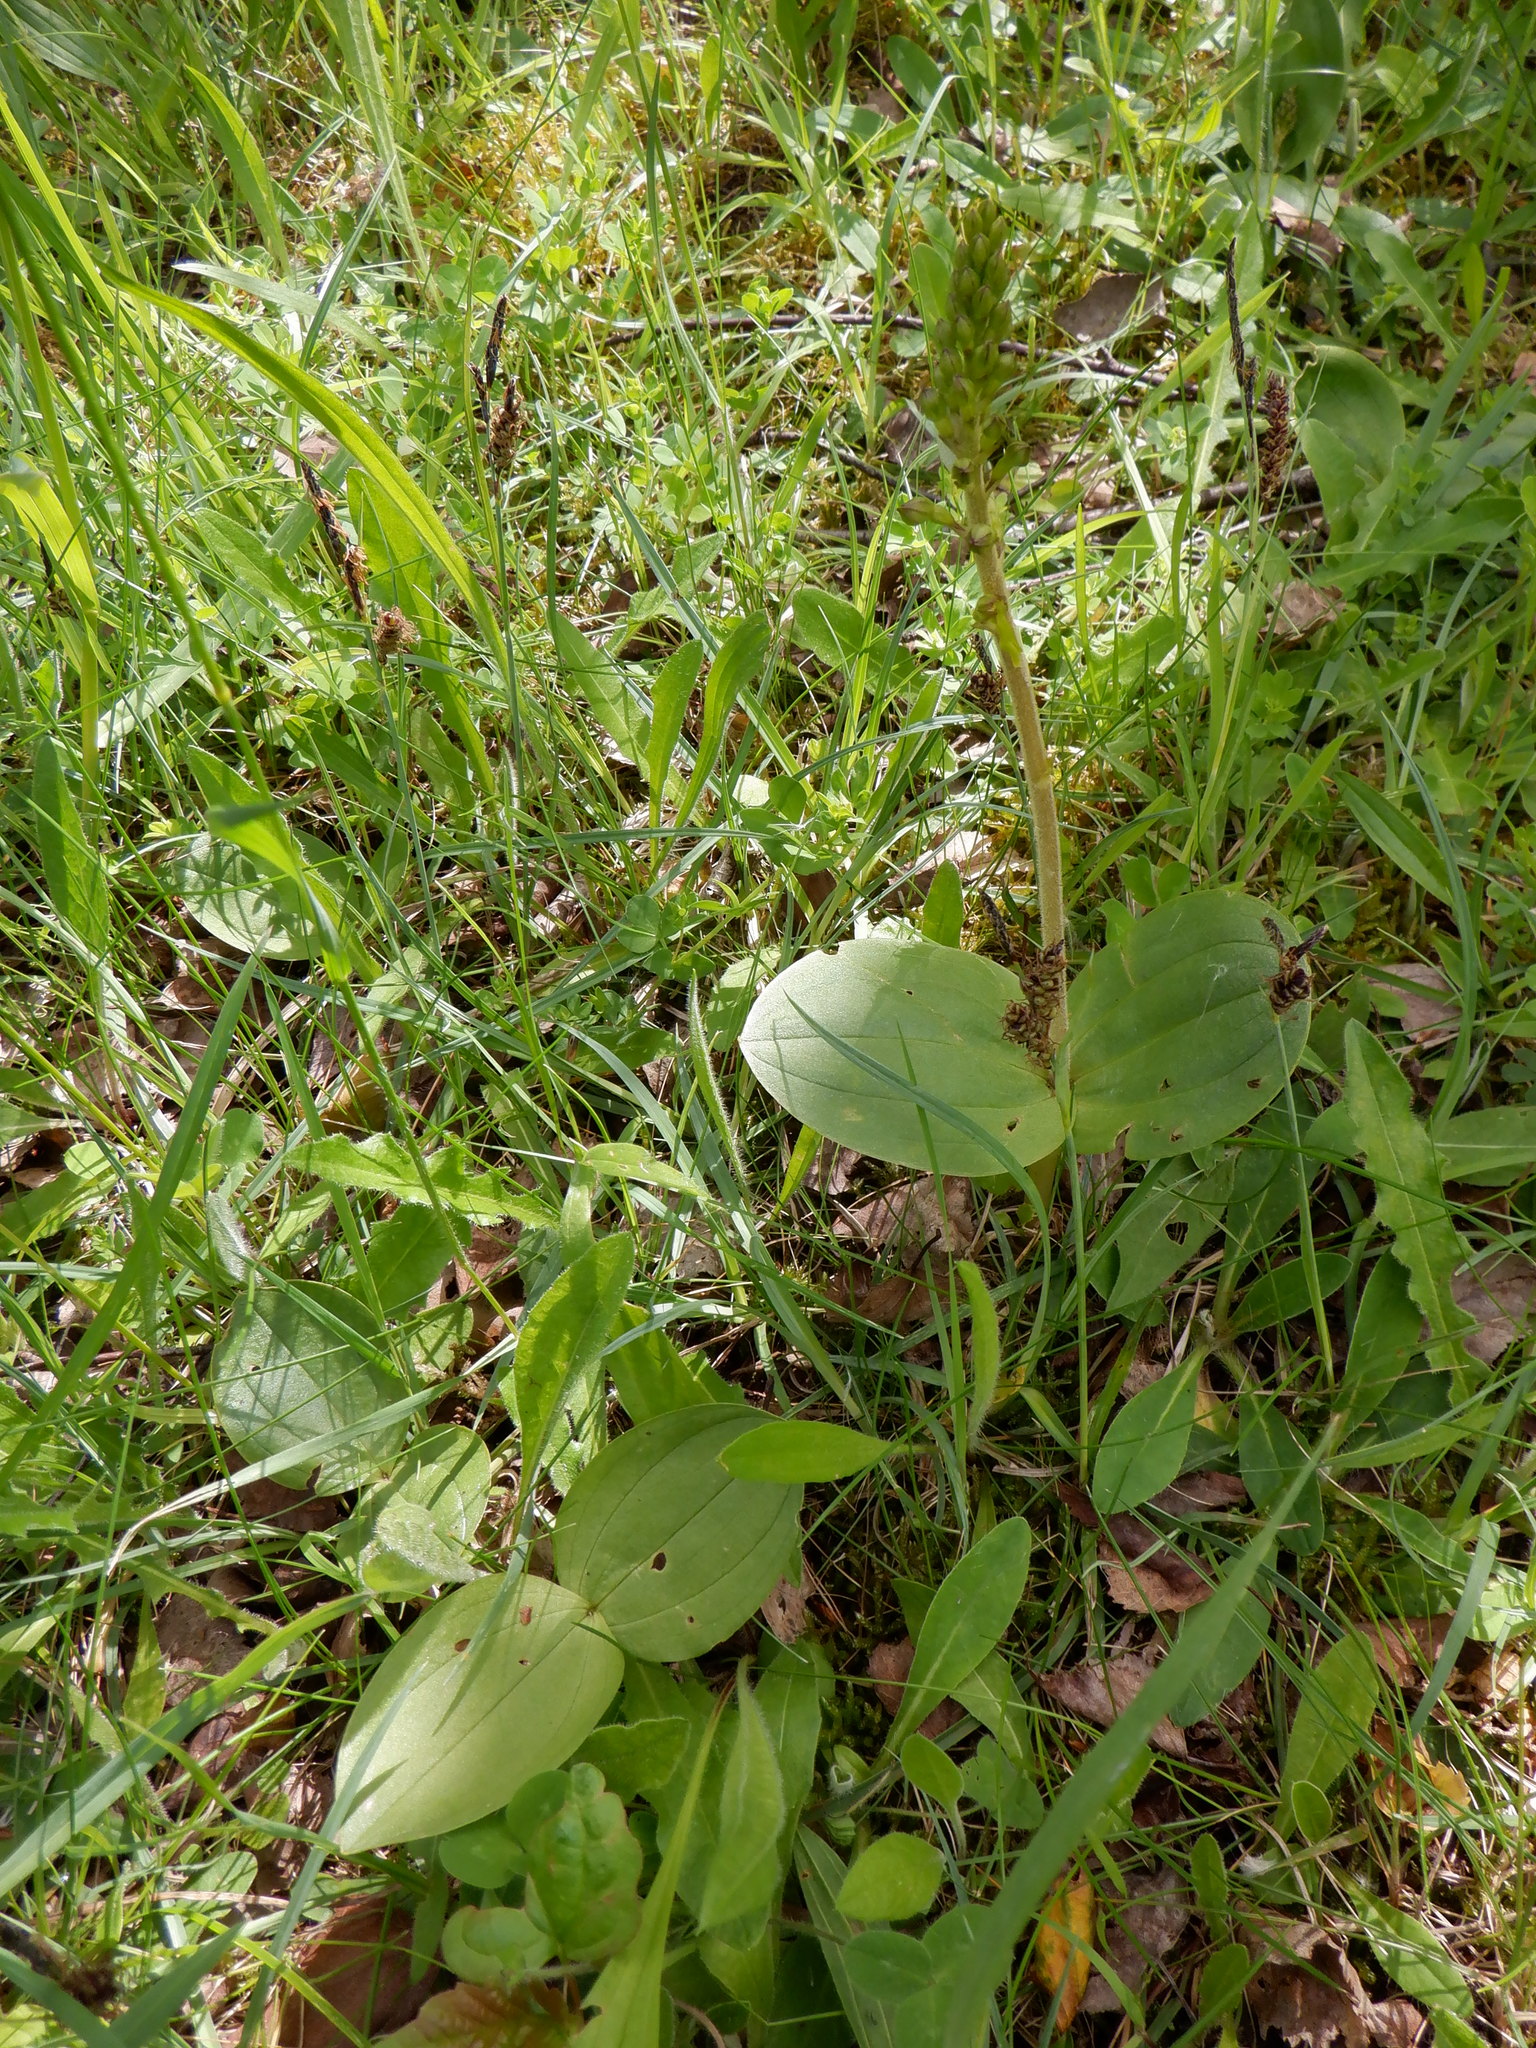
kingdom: Plantae
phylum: Tracheophyta
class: Liliopsida
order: Asparagales
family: Orchidaceae
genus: Neottia
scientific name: Neottia ovata
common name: Common twayblade
